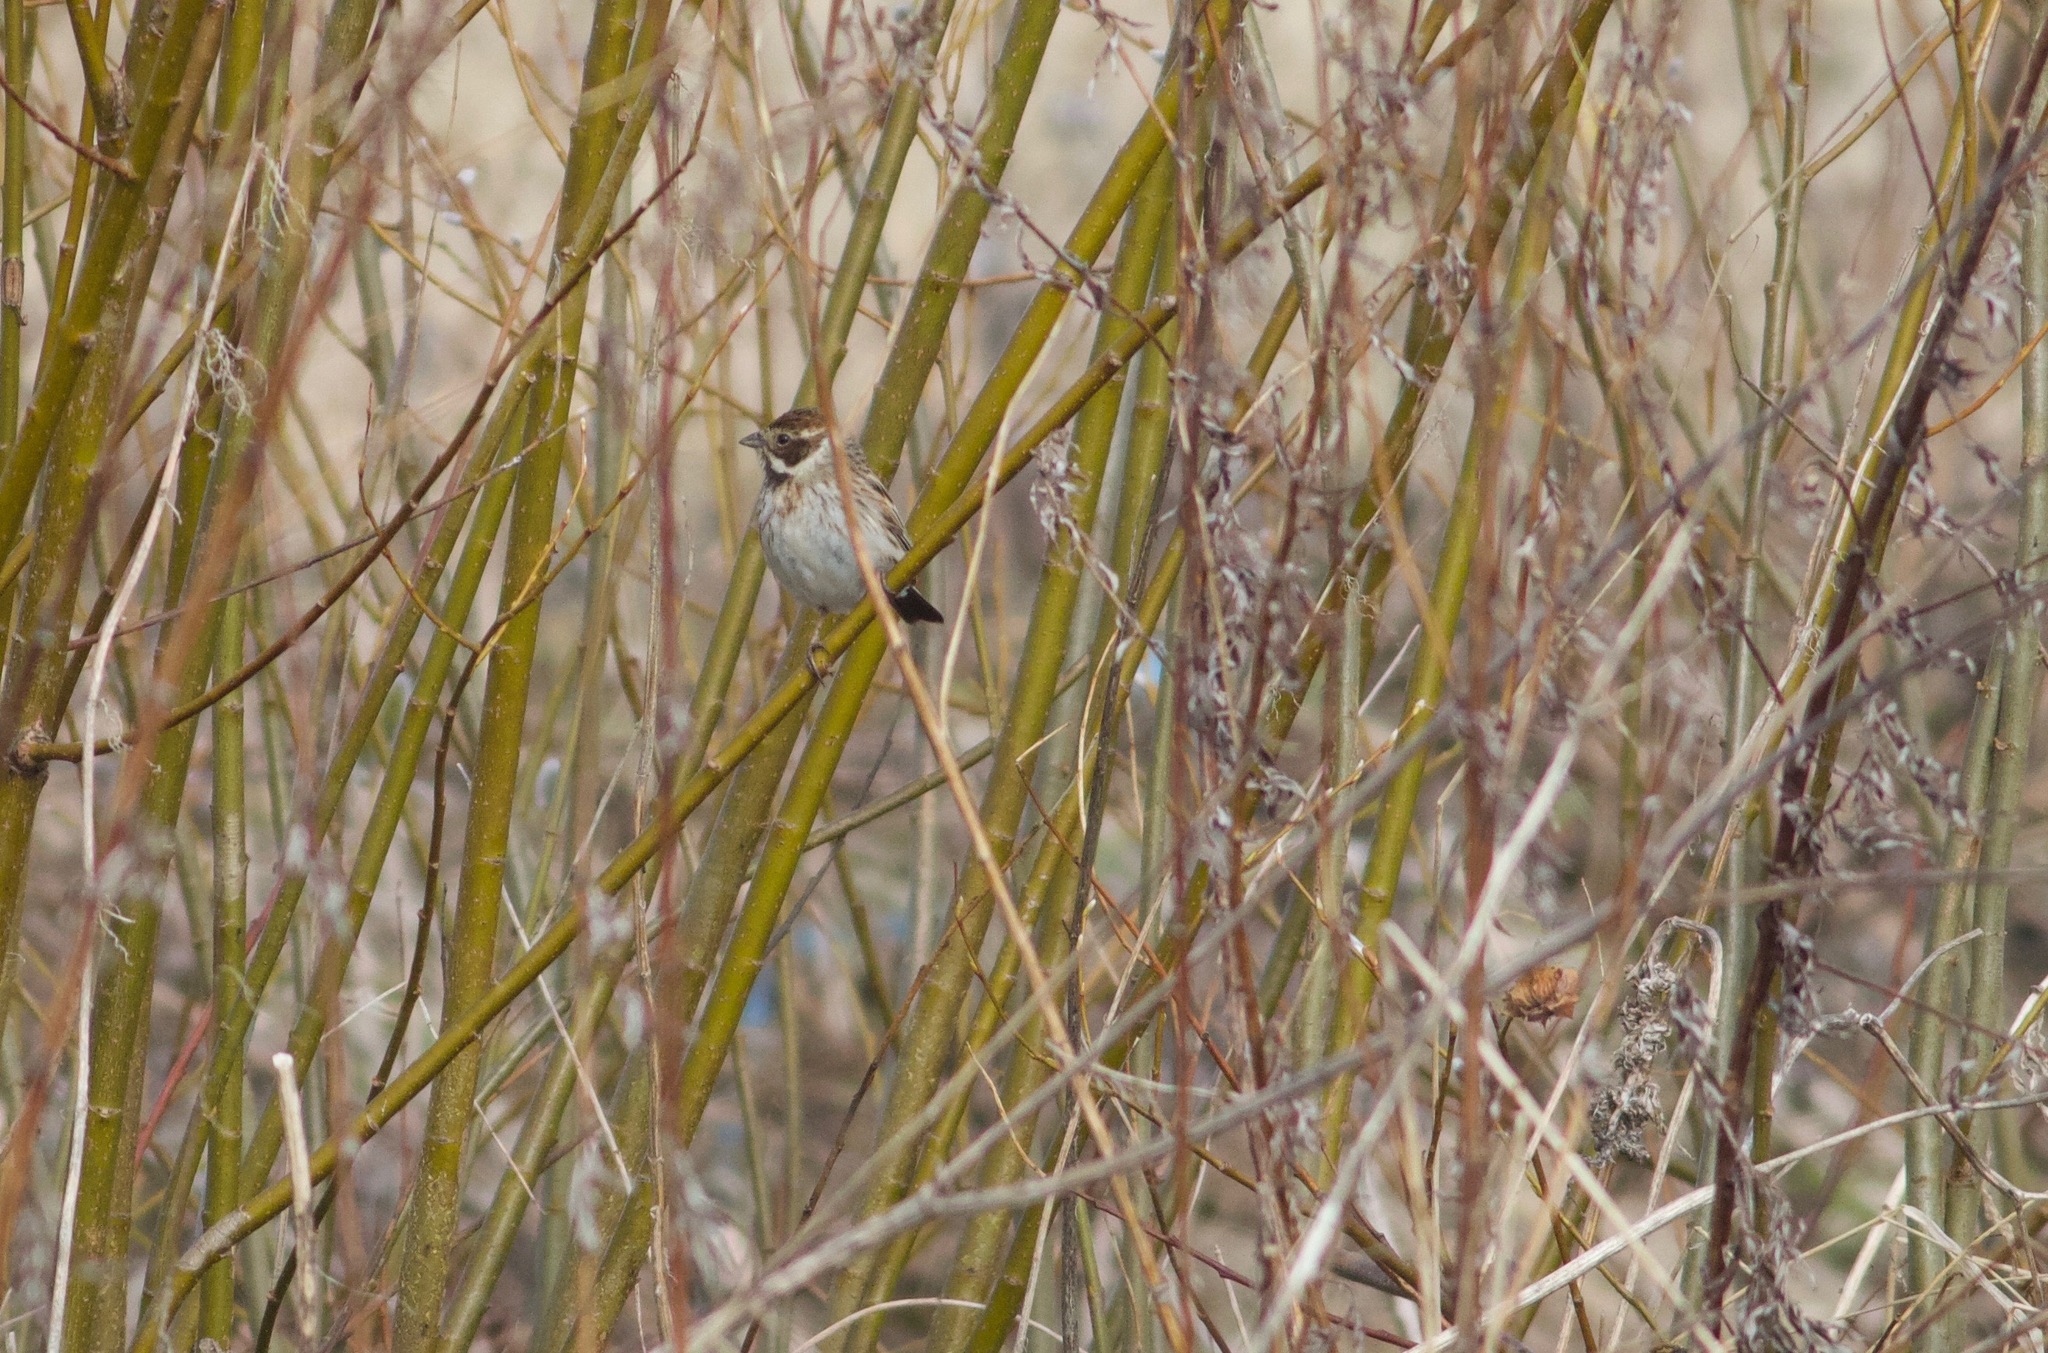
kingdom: Animalia
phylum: Chordata
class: Aves
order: Passeriformes
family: Emberizidae
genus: Emberiza
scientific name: Emberiza schoeniclus
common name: Reed bunting
